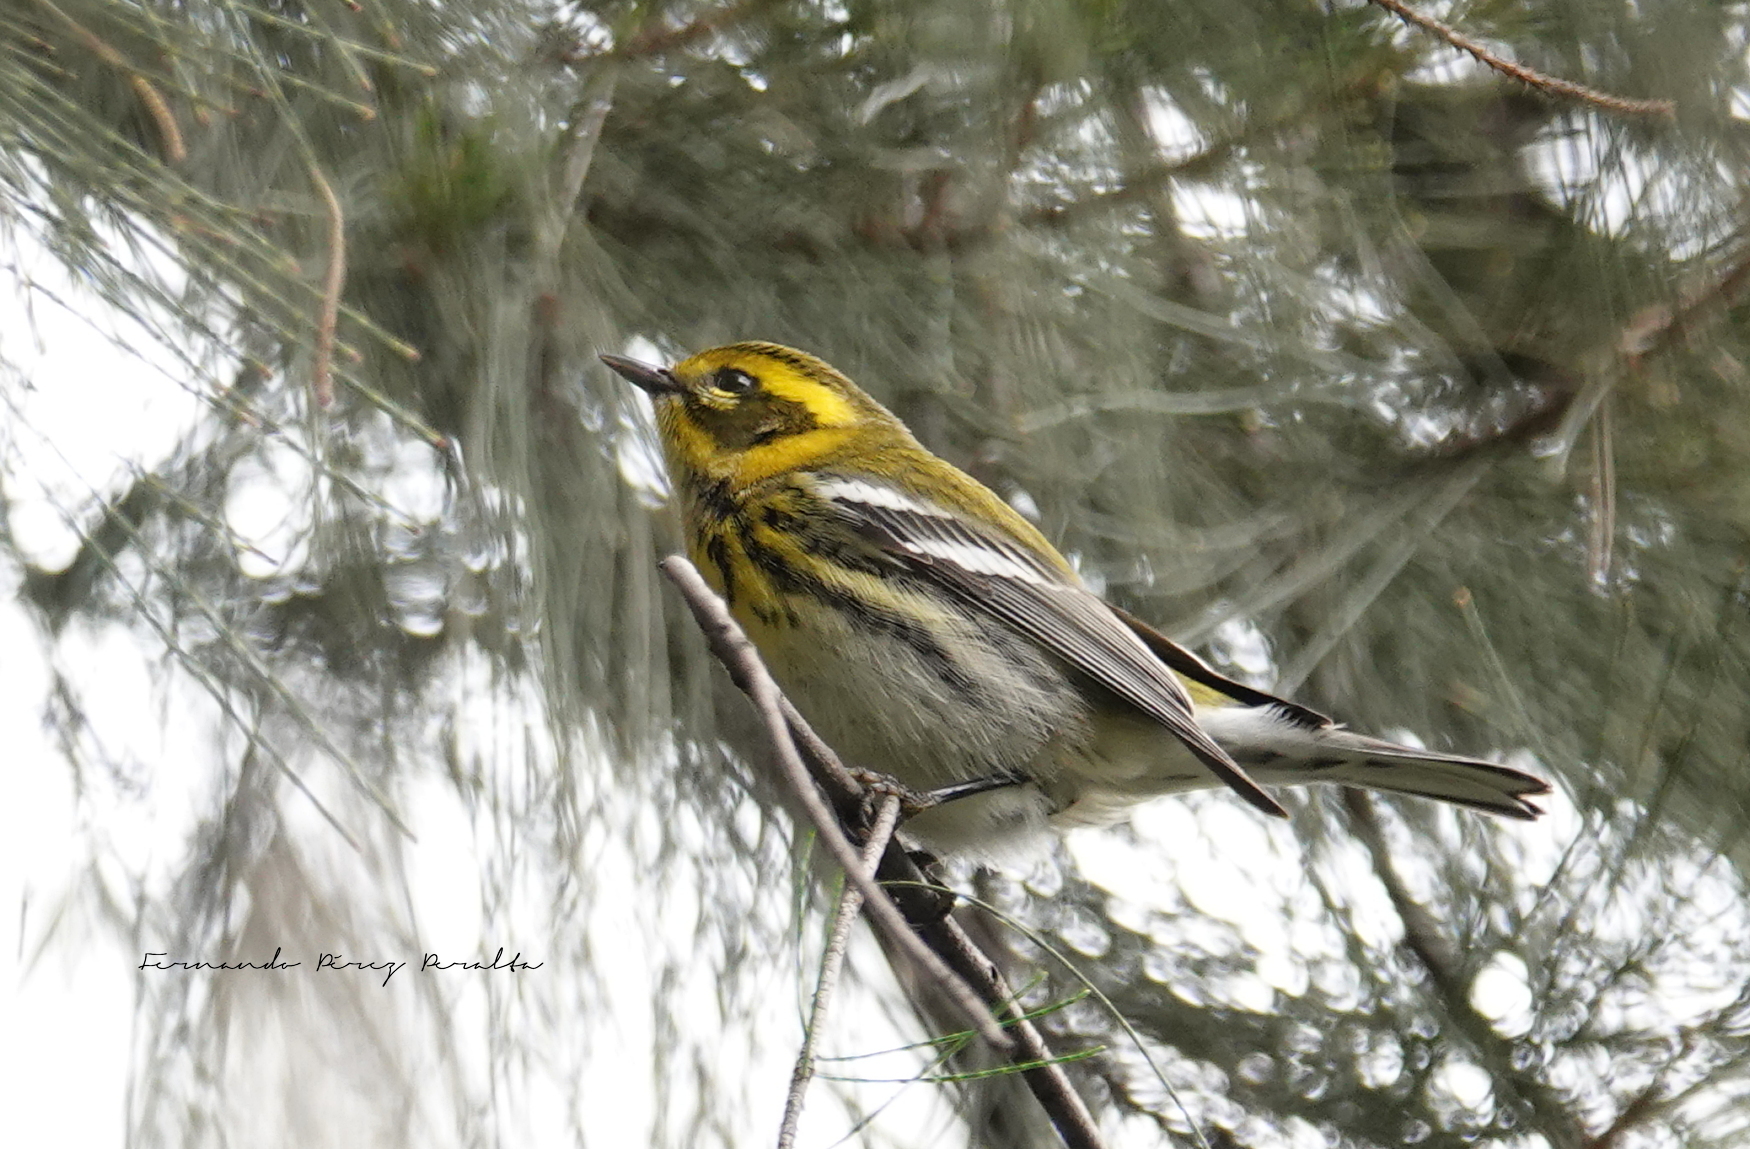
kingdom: Animalia
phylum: Chordata
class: Aves
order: Passeriformes
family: Parulidae
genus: Setophaga
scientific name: Setophaga townsendi
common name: Townsend's warbler
